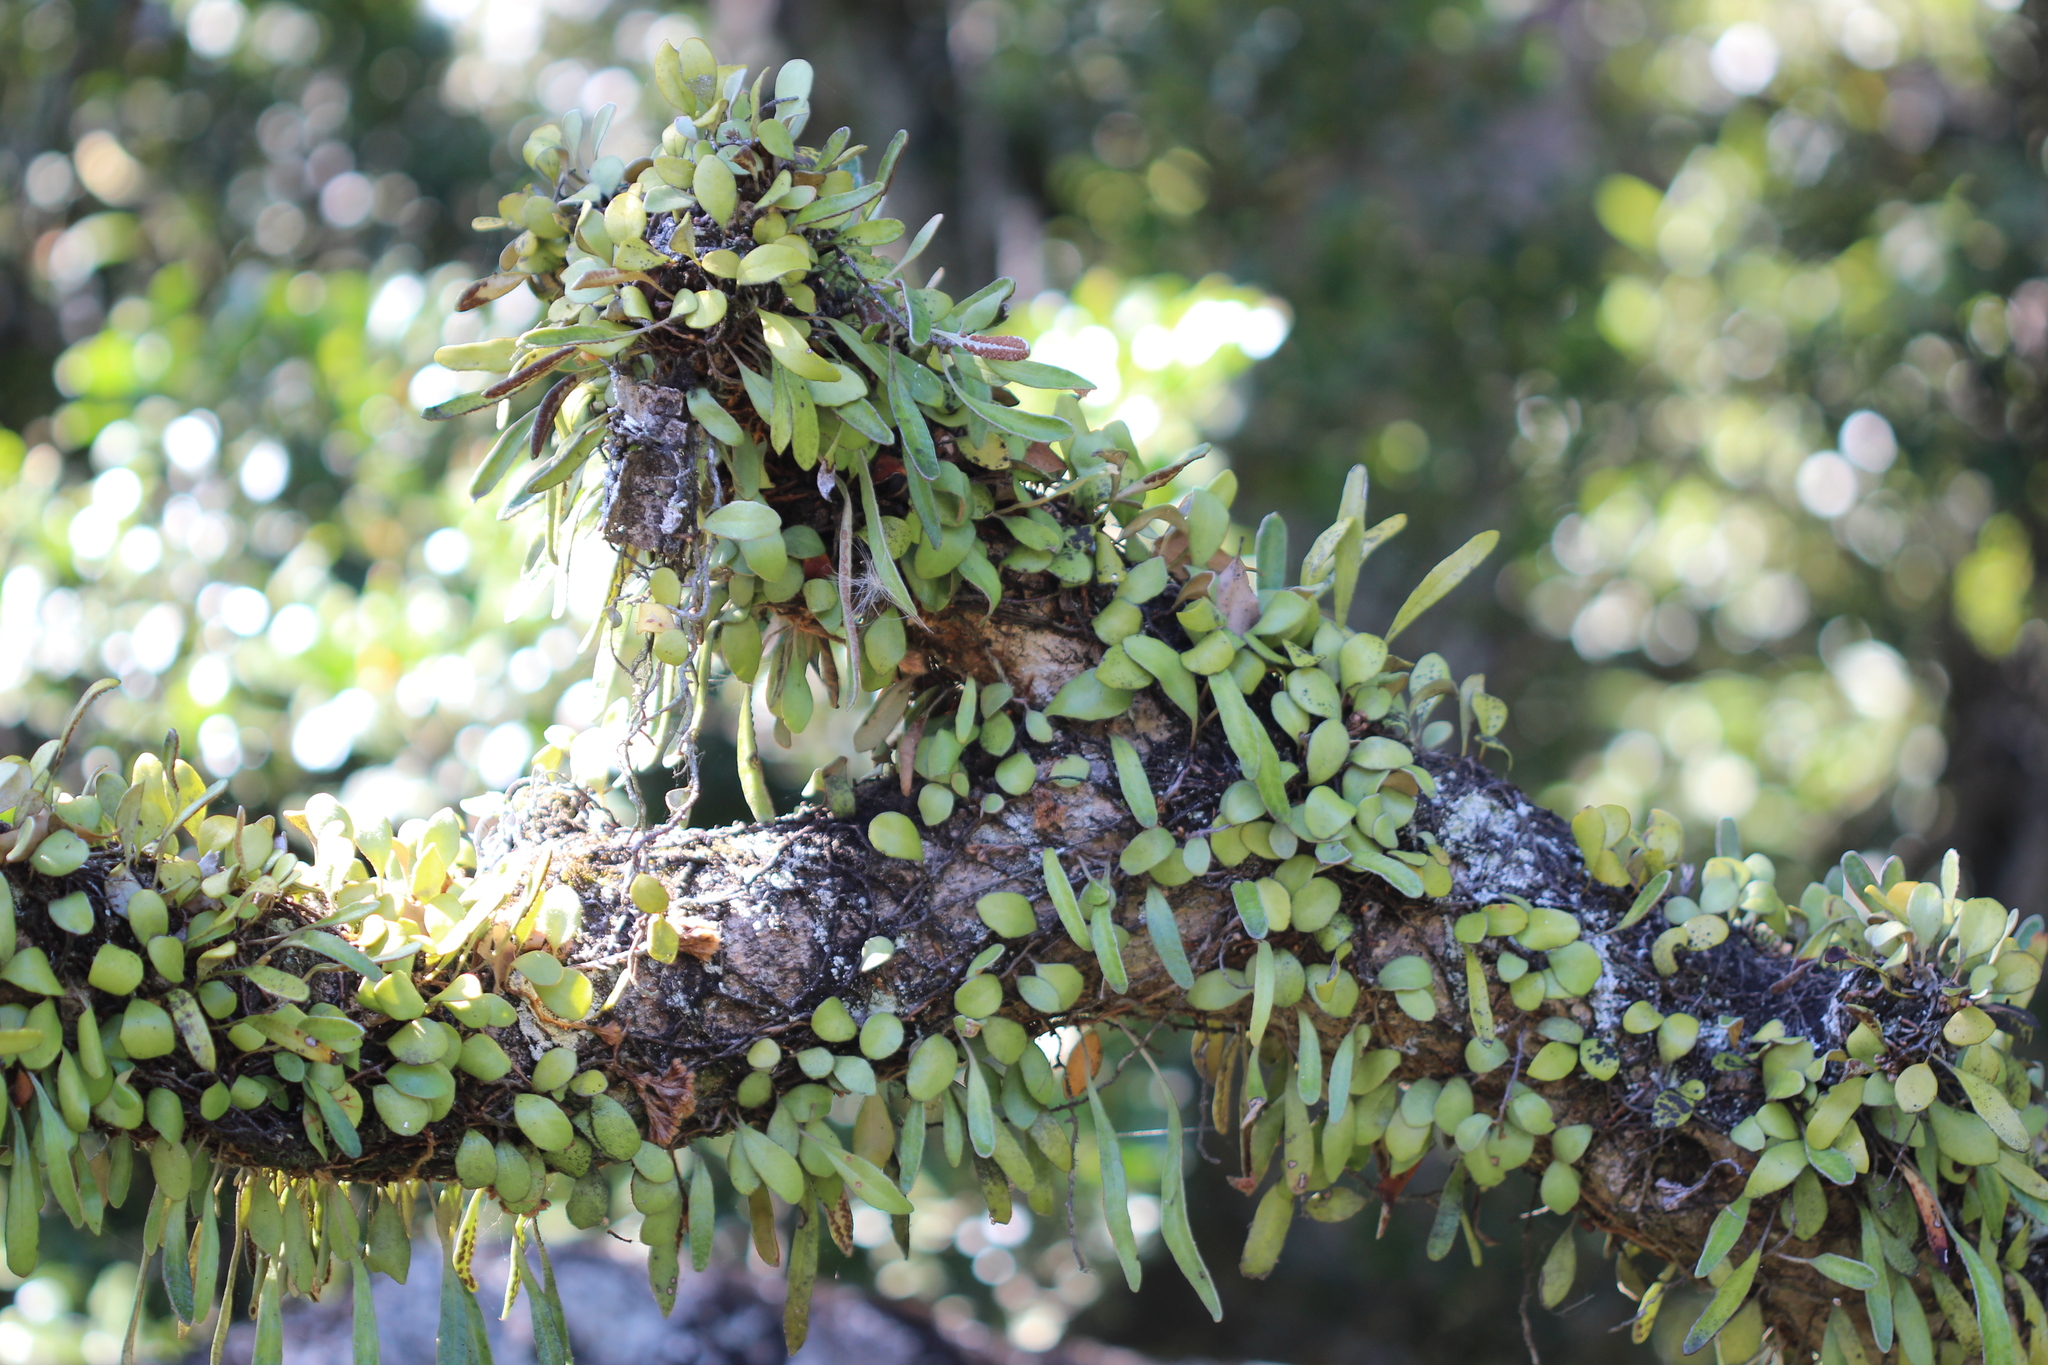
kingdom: Plantae
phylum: Tracheophyta
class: Polypodiopsida
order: Polypodiales
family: Polypodiaceae
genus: Pyrrosia
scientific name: Pyrrosia eleagnifolia
